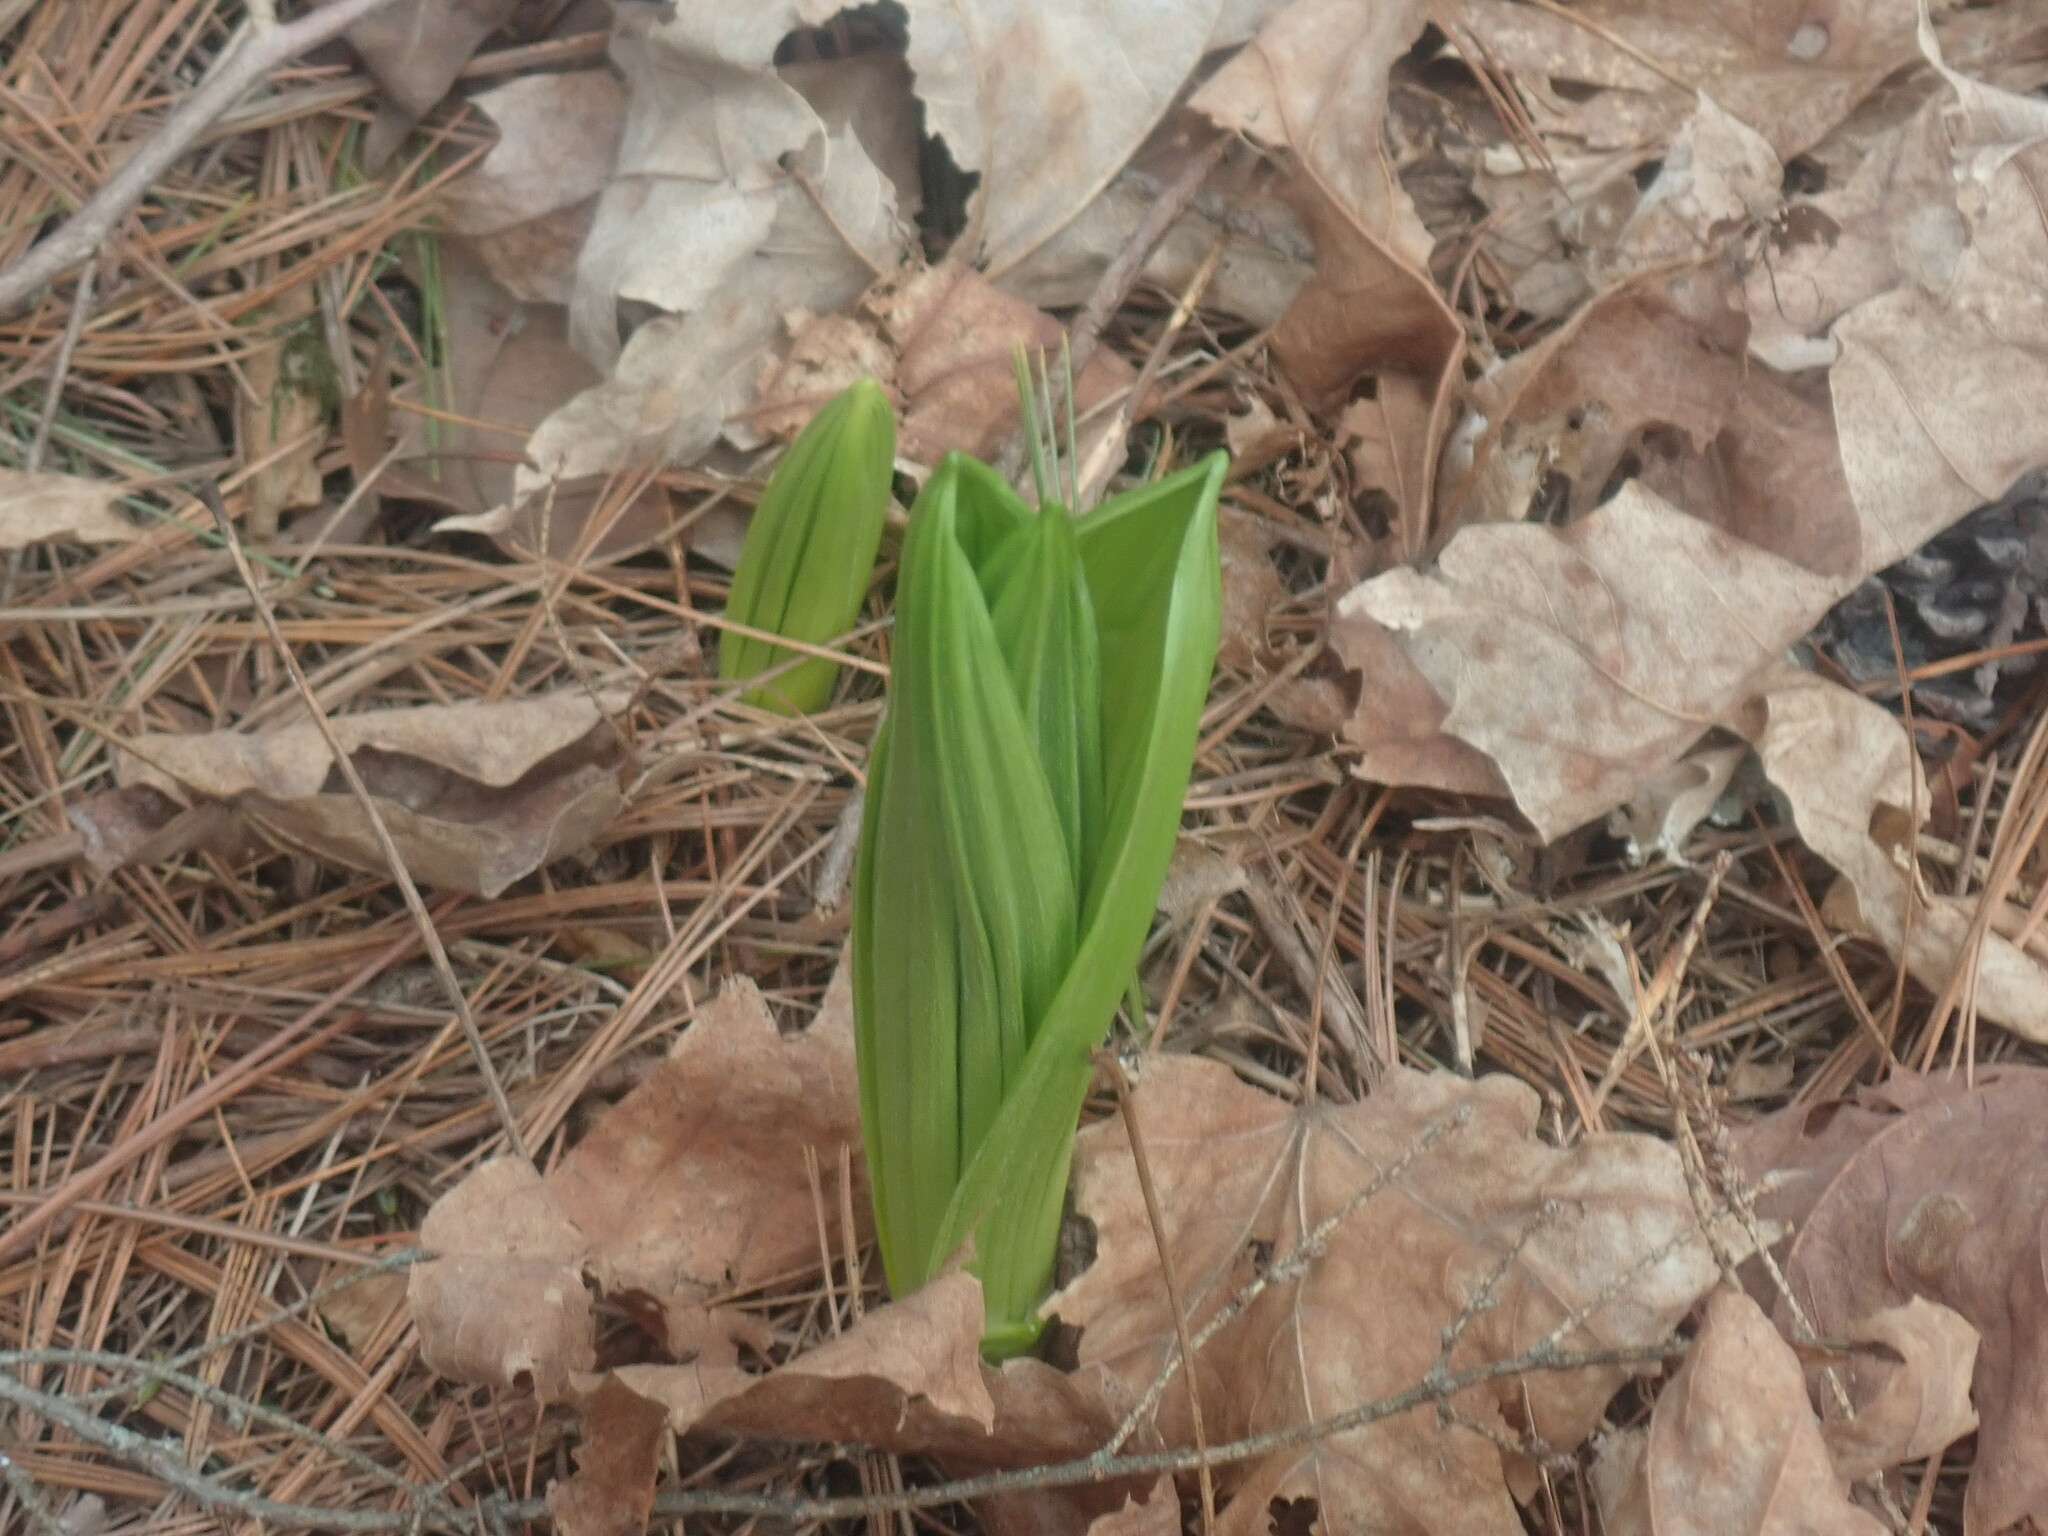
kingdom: Plantae
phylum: Tracheophyta
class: Liliopsida
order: Liliales
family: Melanthiaceae
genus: Veratrum
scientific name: Veratrum viride
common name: American false hellebore
